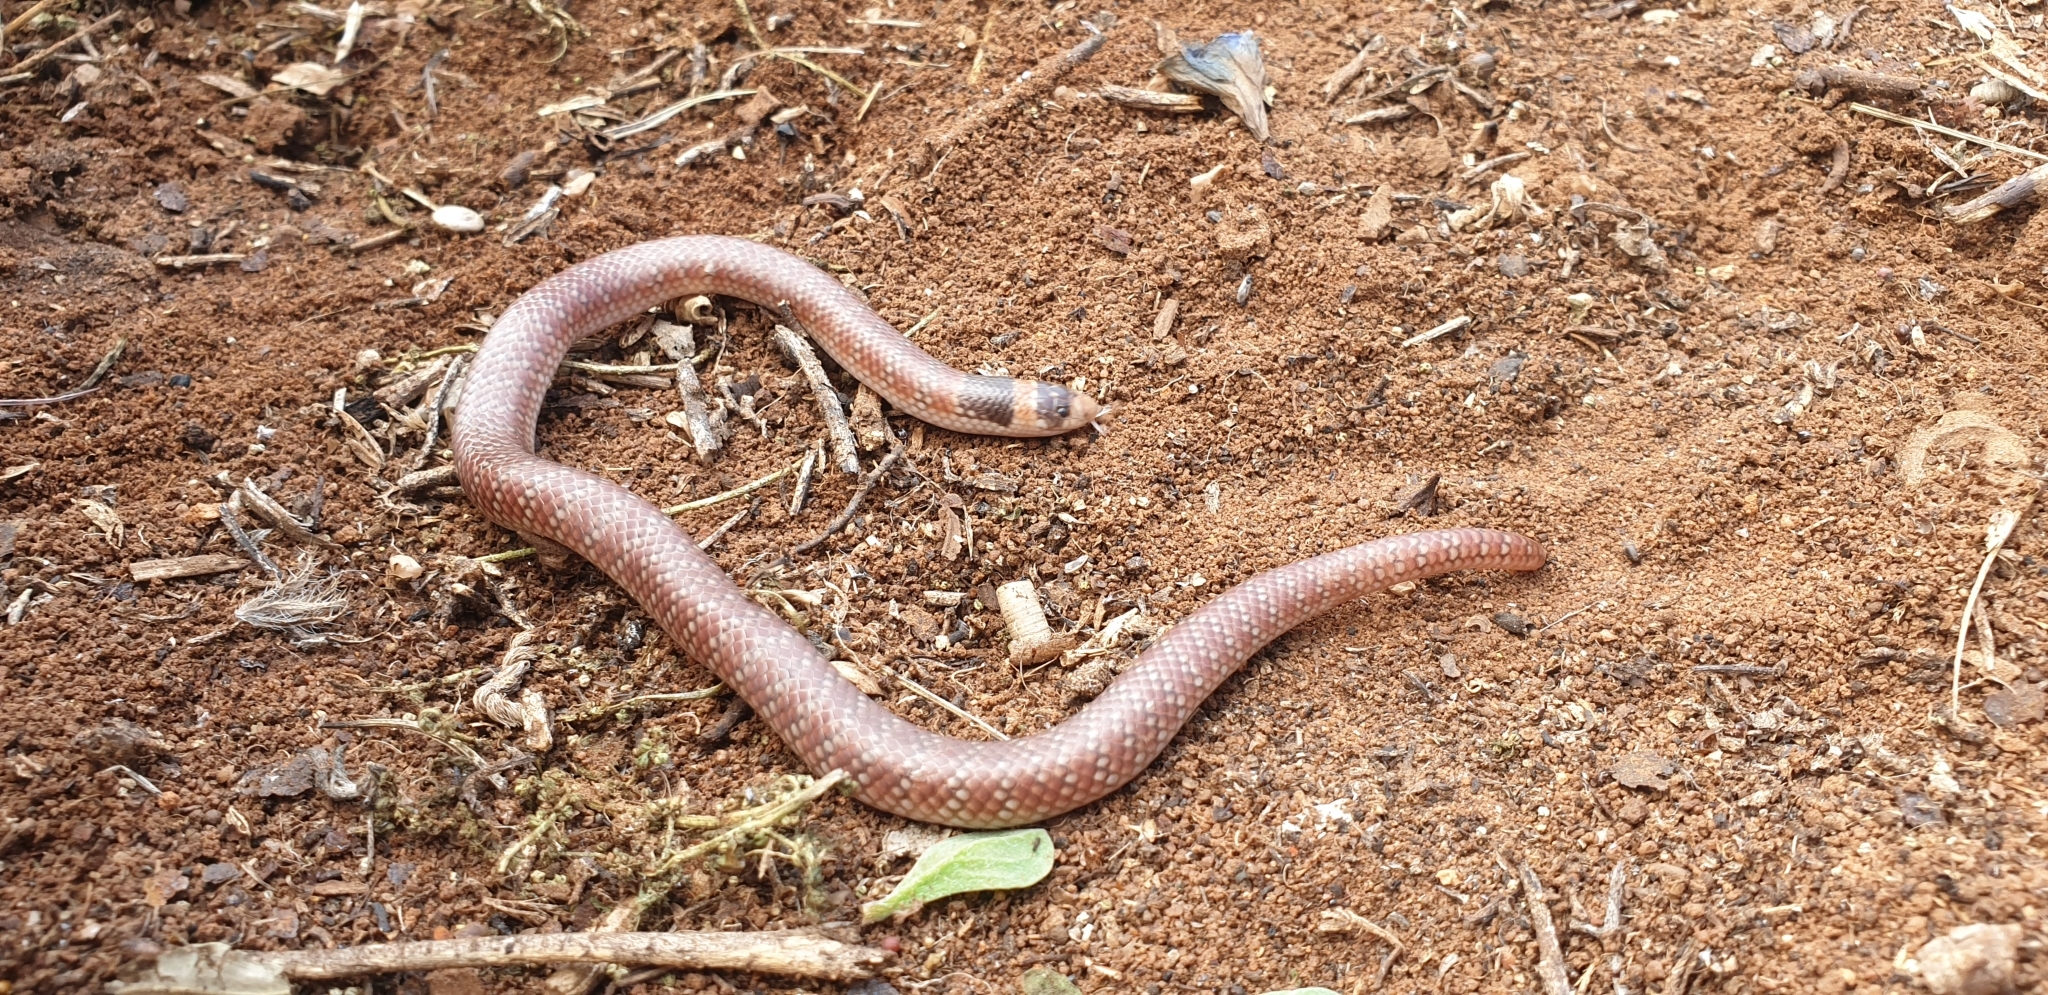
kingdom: Animalia
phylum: Chordata
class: Squamata
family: Elapidae
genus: Brachyurophis
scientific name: Brachyurophis australis
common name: Australian coral snake
